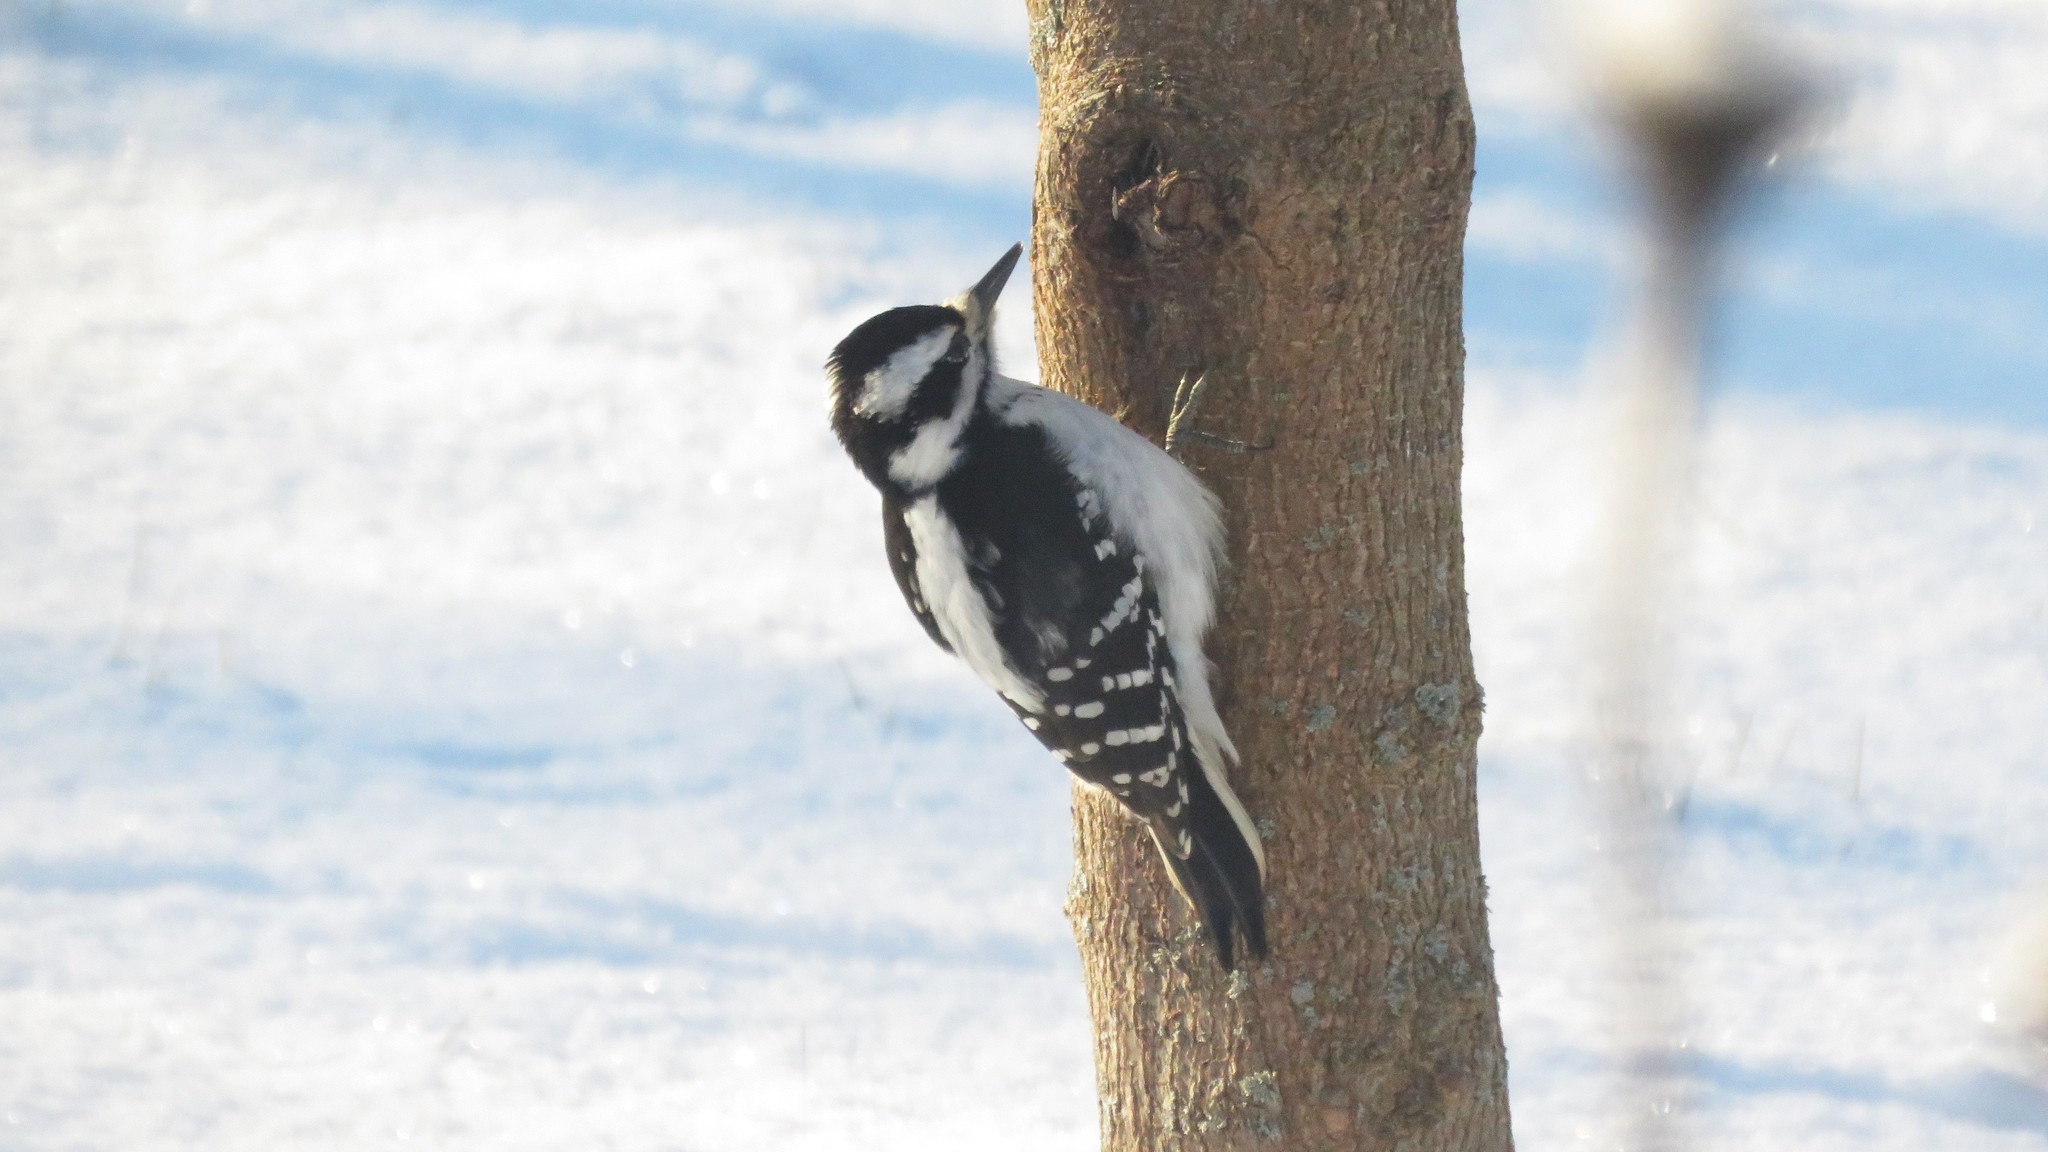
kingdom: Animalia
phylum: Chordata
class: Aves
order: Piciformes
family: Picidae
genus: Leuconotopicus
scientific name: Leuconotopicus villosus
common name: Hairy woodpecker
